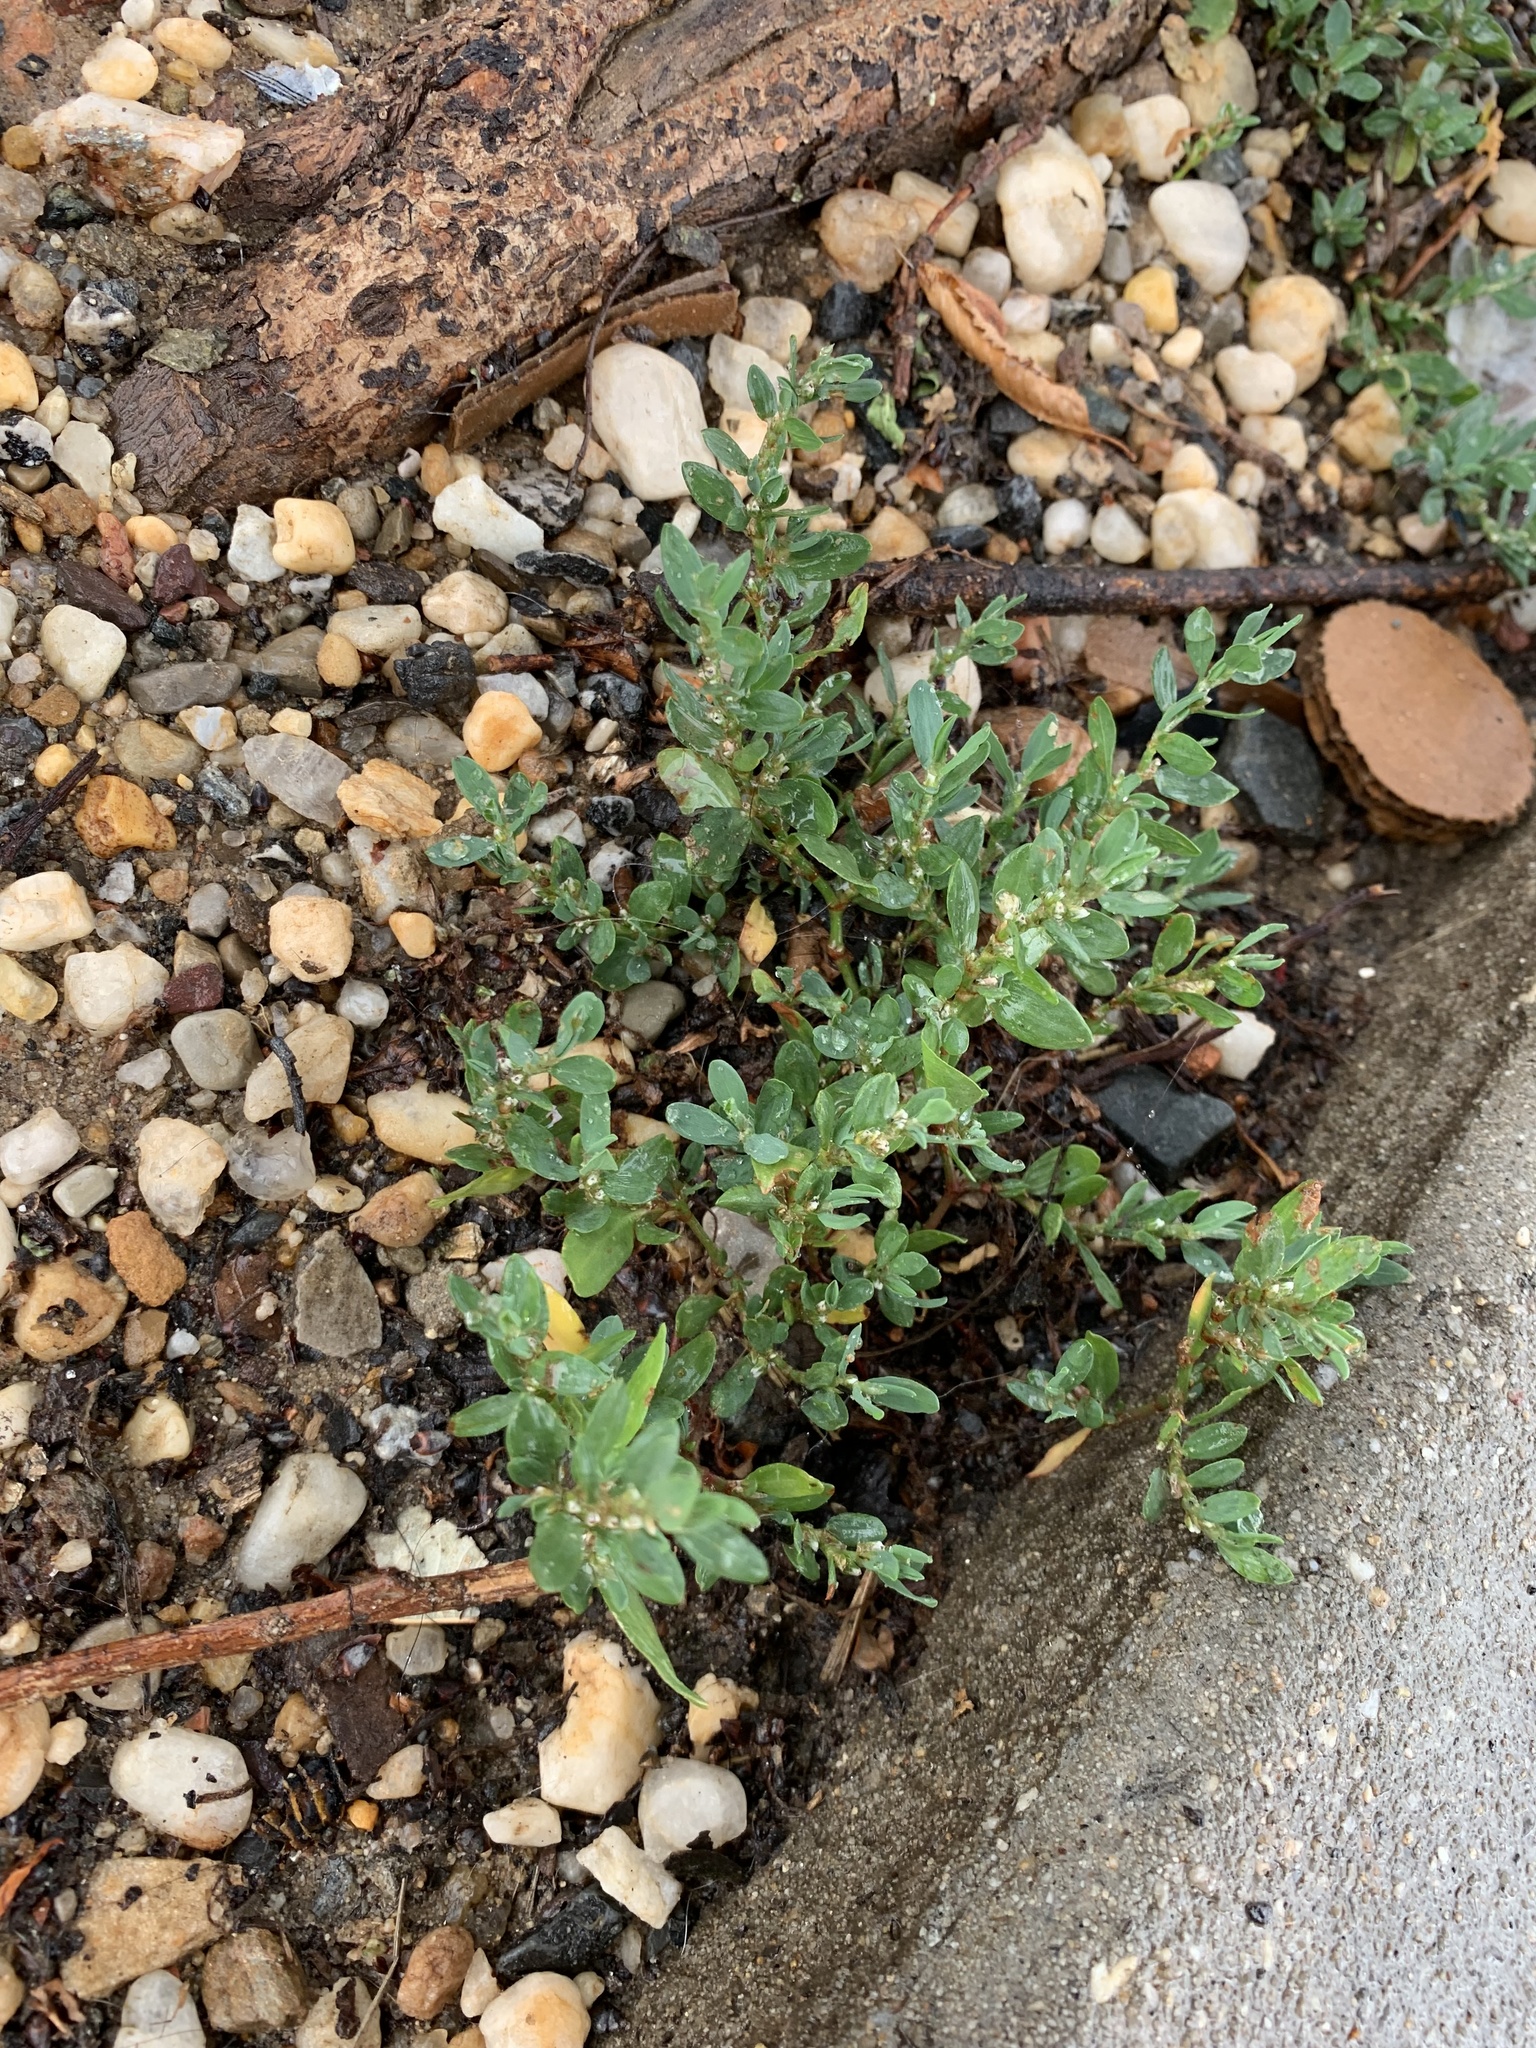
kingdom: Plantae
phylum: Tracheophyta
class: Magnoliopsida
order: Caryophyllales
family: Polygonaceae
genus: Polygonum
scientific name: Polygonum aviculare
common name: Prostrate knotweed
